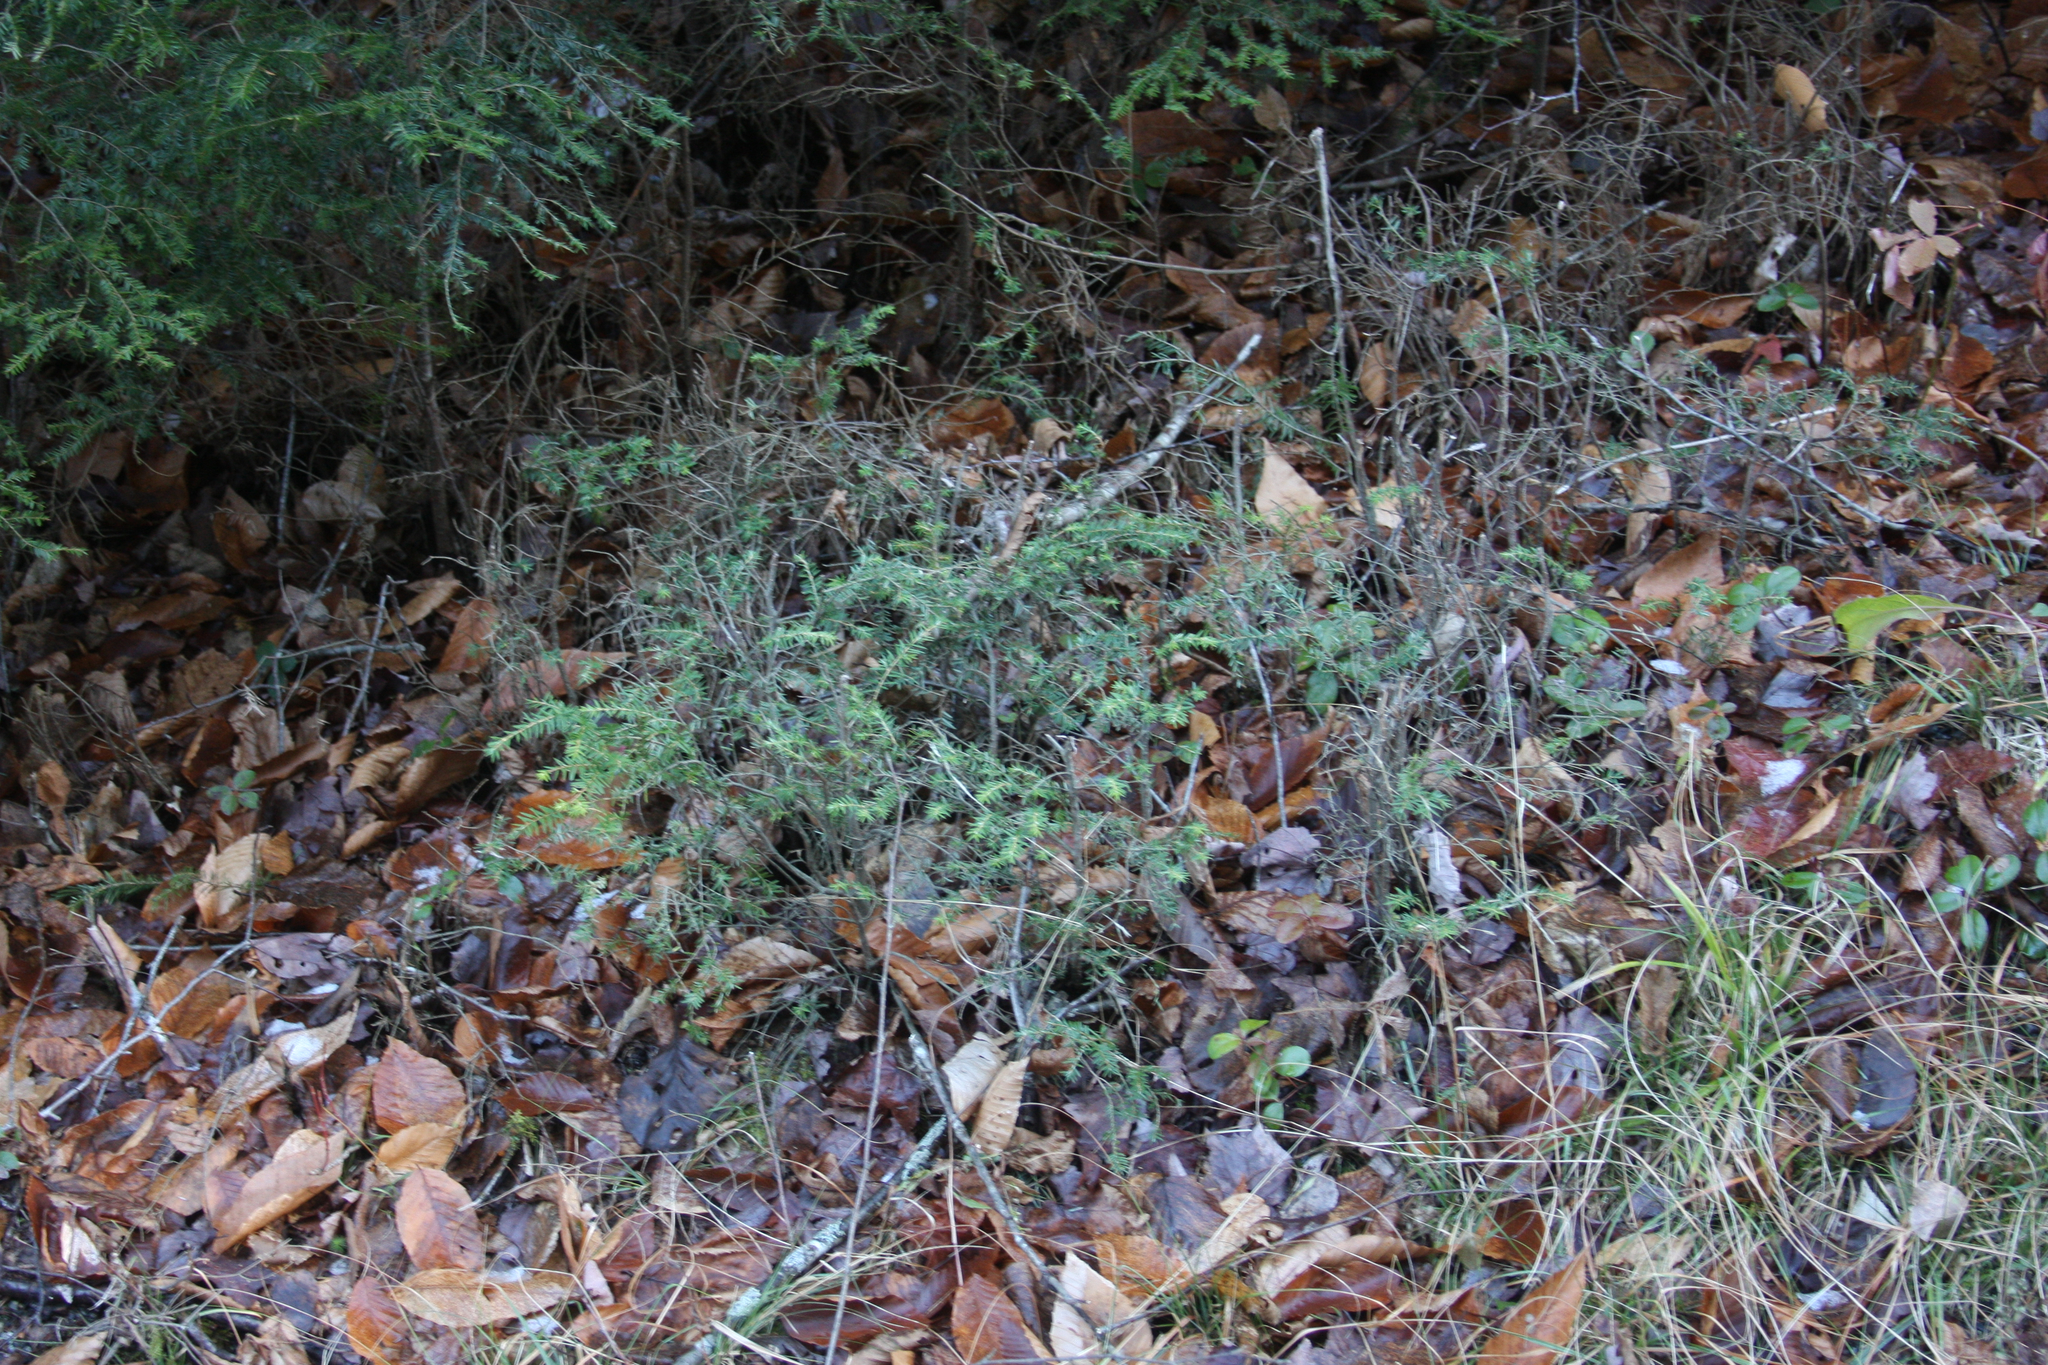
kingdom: Plantae
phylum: Tracheophyta
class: Pinopsida
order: Pinales
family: Pinaceae
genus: Tsuga
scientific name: Tsuga canadensis
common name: Eastern hemlock
